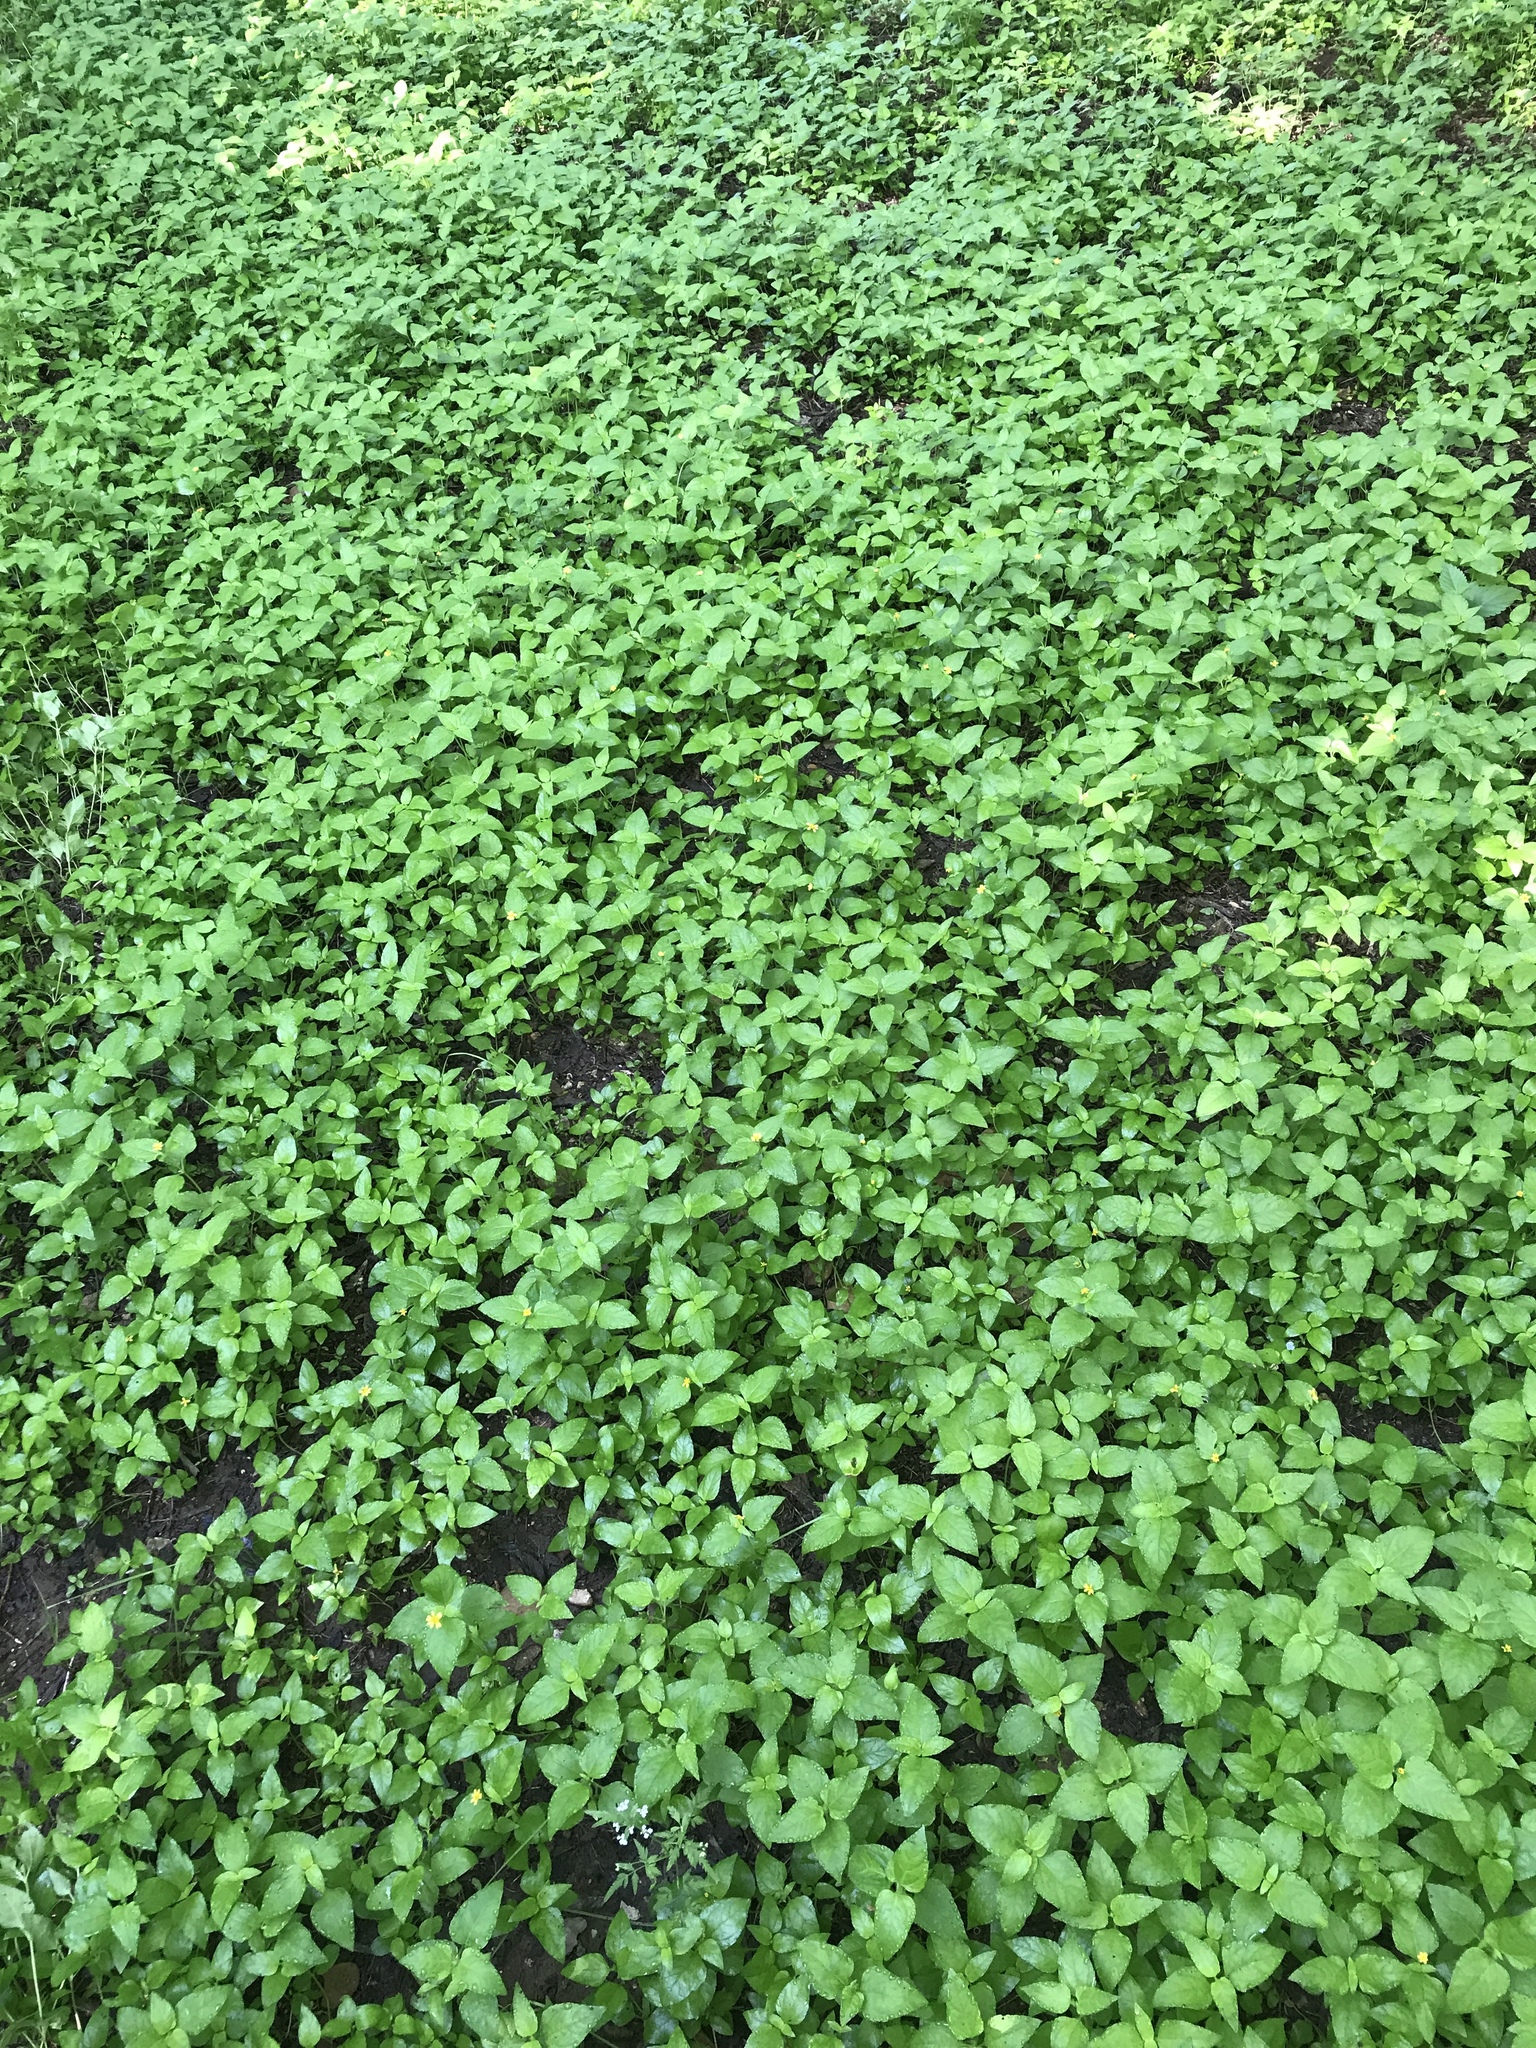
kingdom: Plantae
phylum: Tracheophyta
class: Magnoliopsida
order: Asterales
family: Asteraceae
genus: Calyptocarpus
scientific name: Calyptocarpus vialis
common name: Straggler daisy
